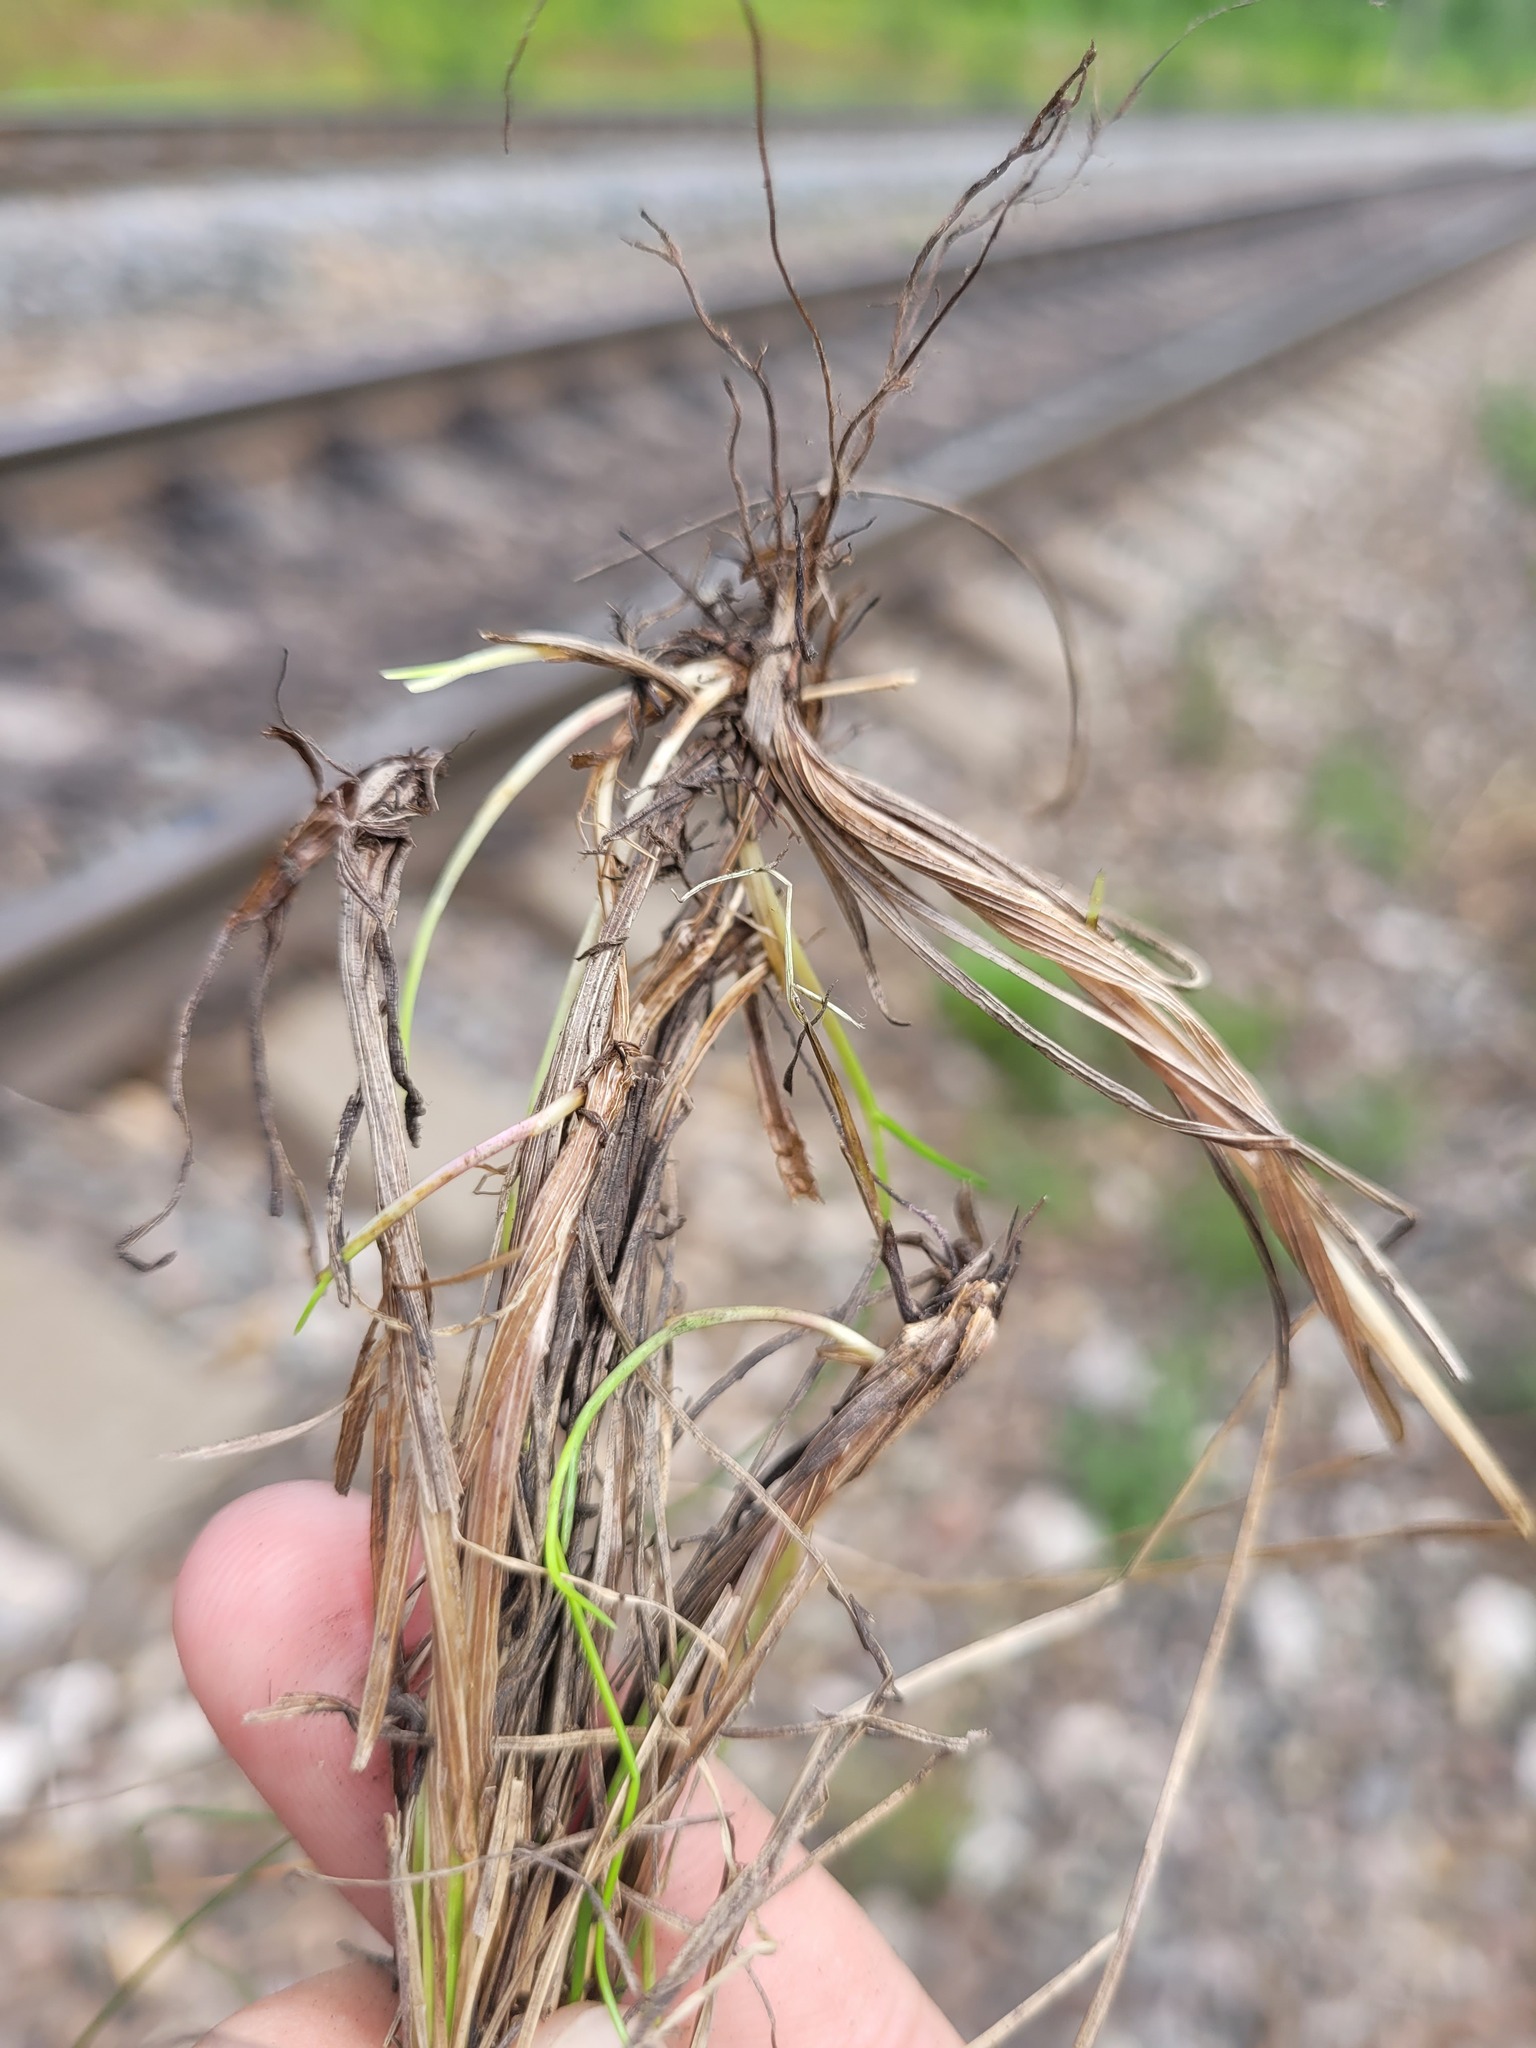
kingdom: Plantae
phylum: Tracheophyta
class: Liliopsida
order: Poales
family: Poaceae
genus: Festuca
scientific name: Festuca rubra
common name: Red fescue
